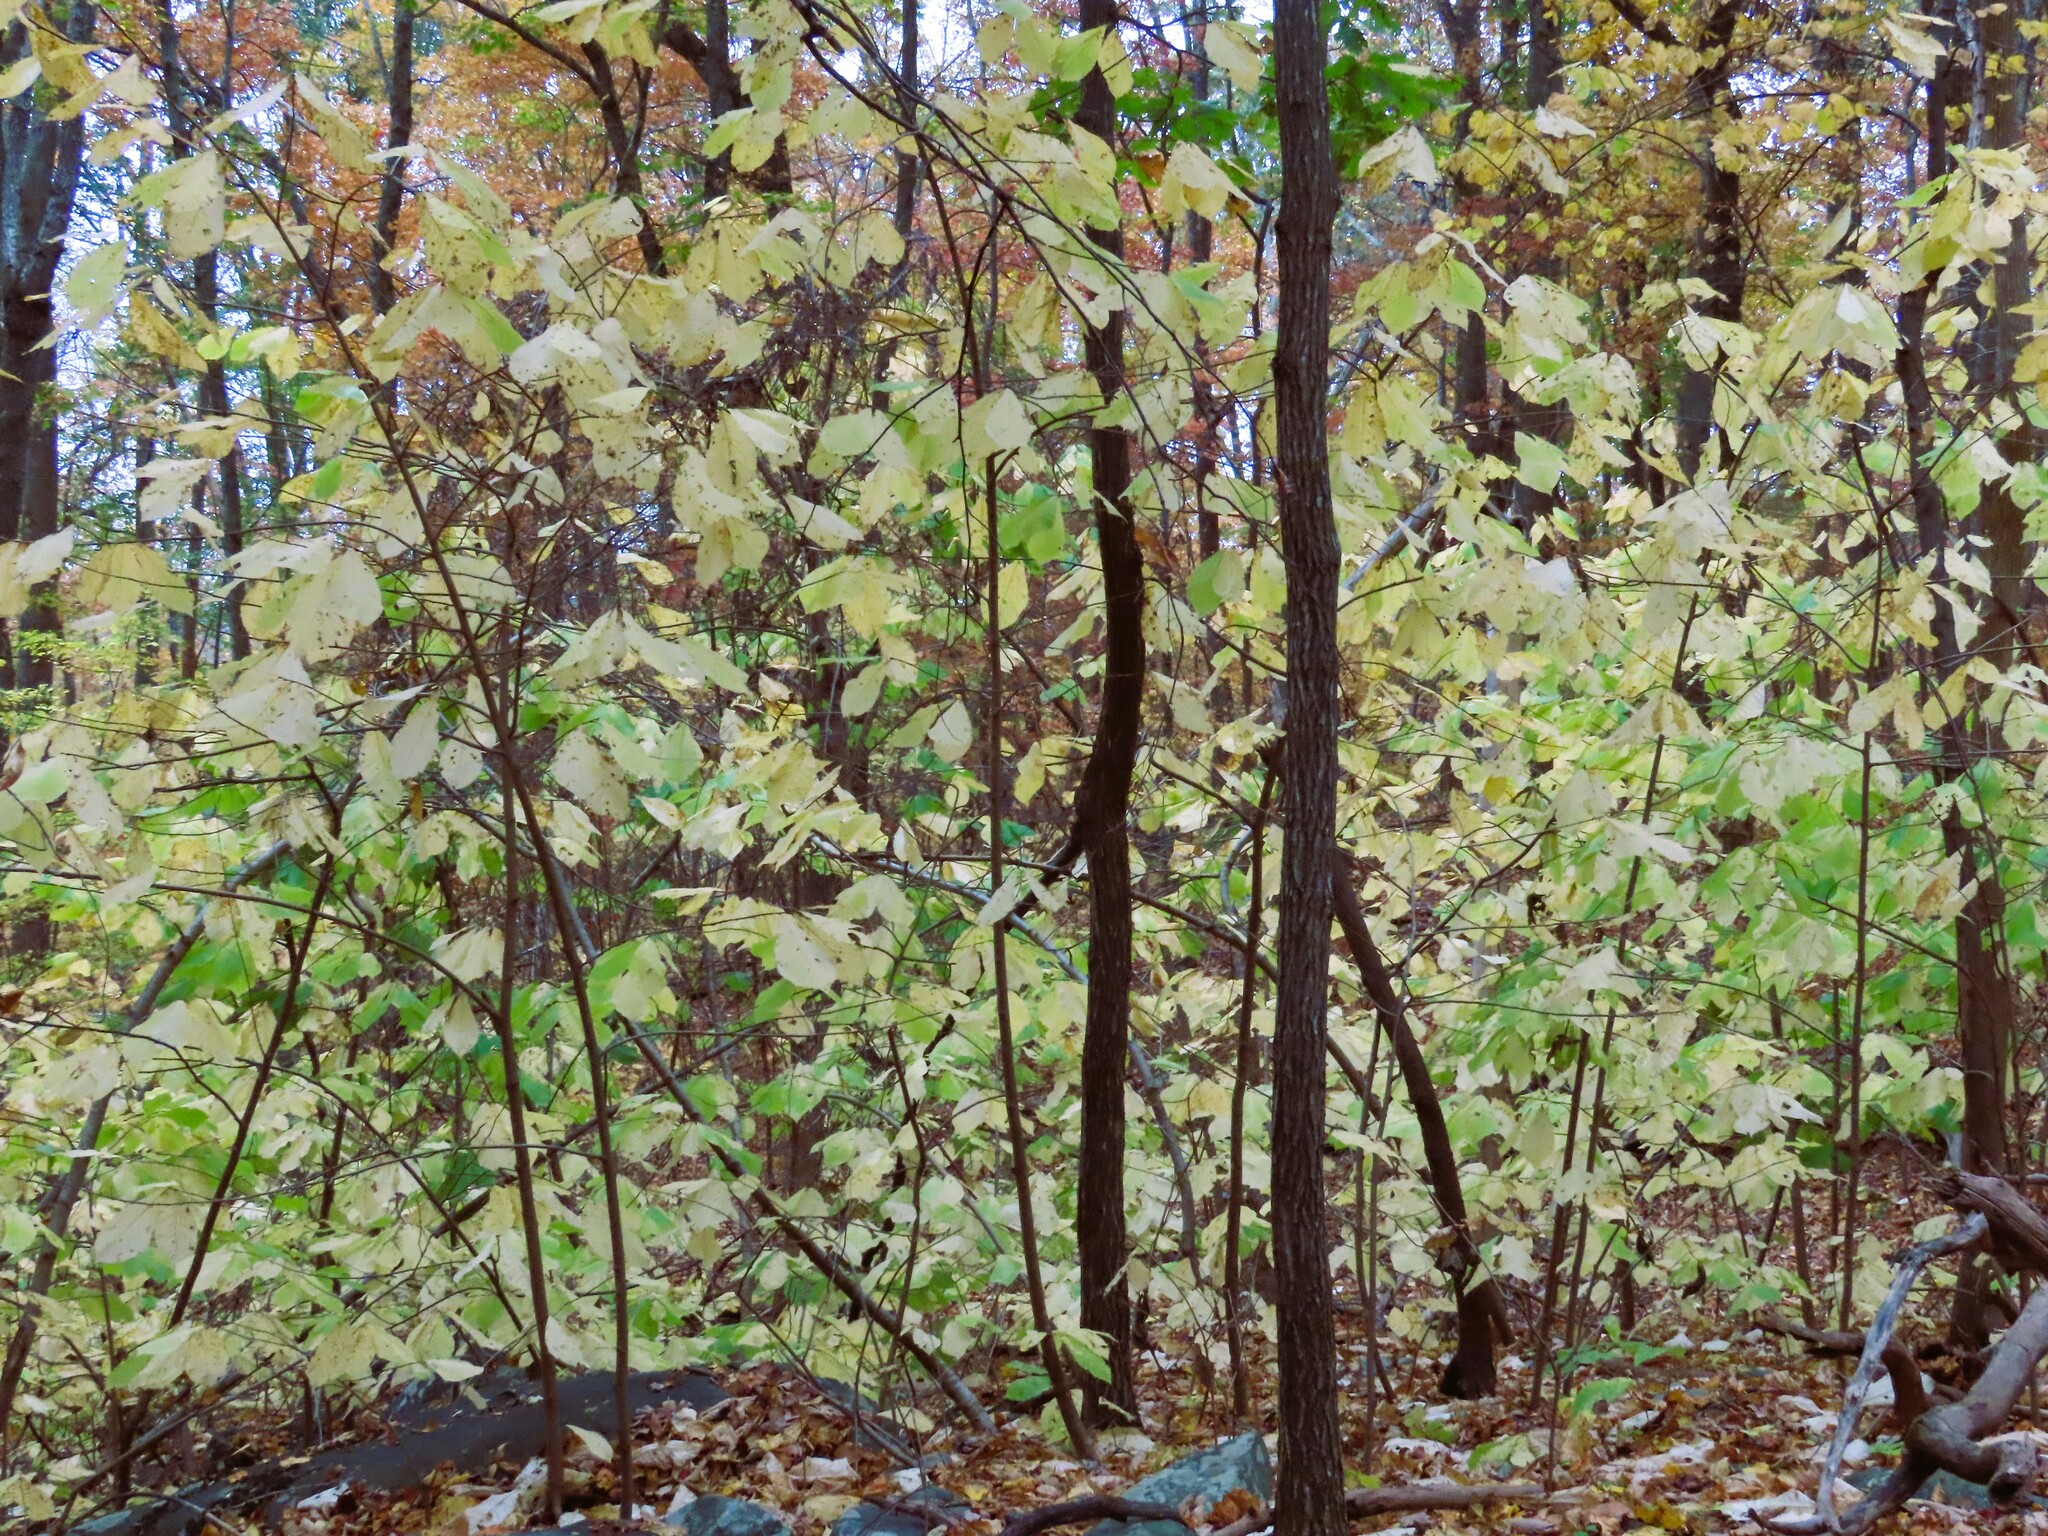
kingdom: Plantae
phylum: Tracheophyta
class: Magnoliopsida
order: Magnoliales
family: Annonaceae
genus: Asimina
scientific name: Asimina triloba
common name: Dog-banana
